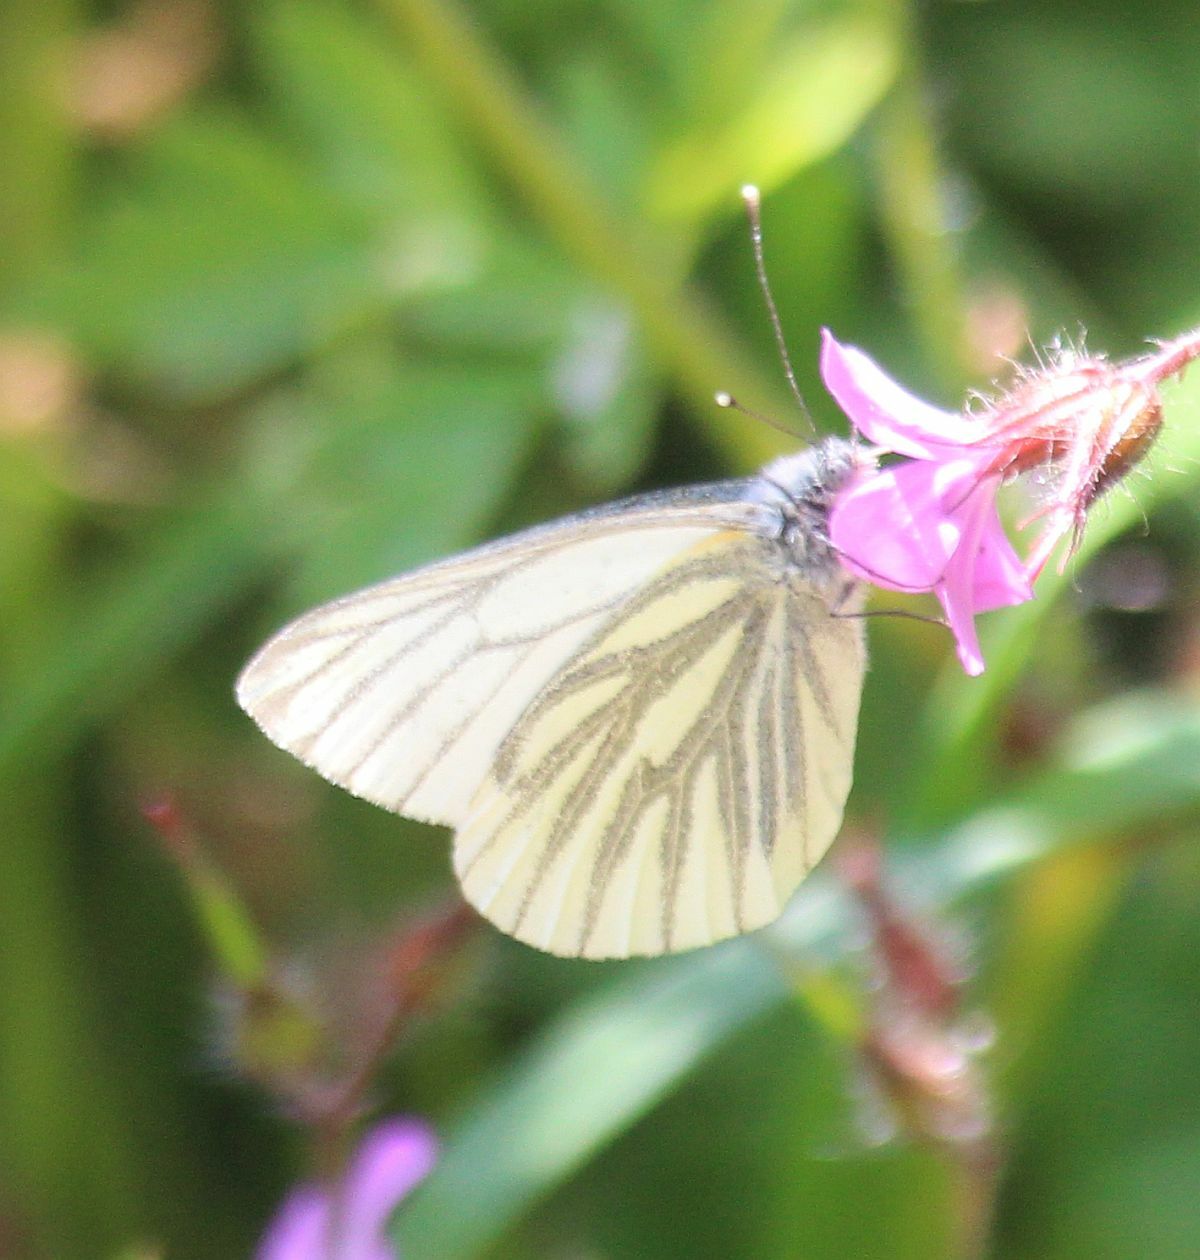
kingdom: Animalia
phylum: Arthropoda
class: Insecta
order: Lepidoptera
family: Pieridae
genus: Pieris
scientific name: Pieris napi
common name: Green-veined white
